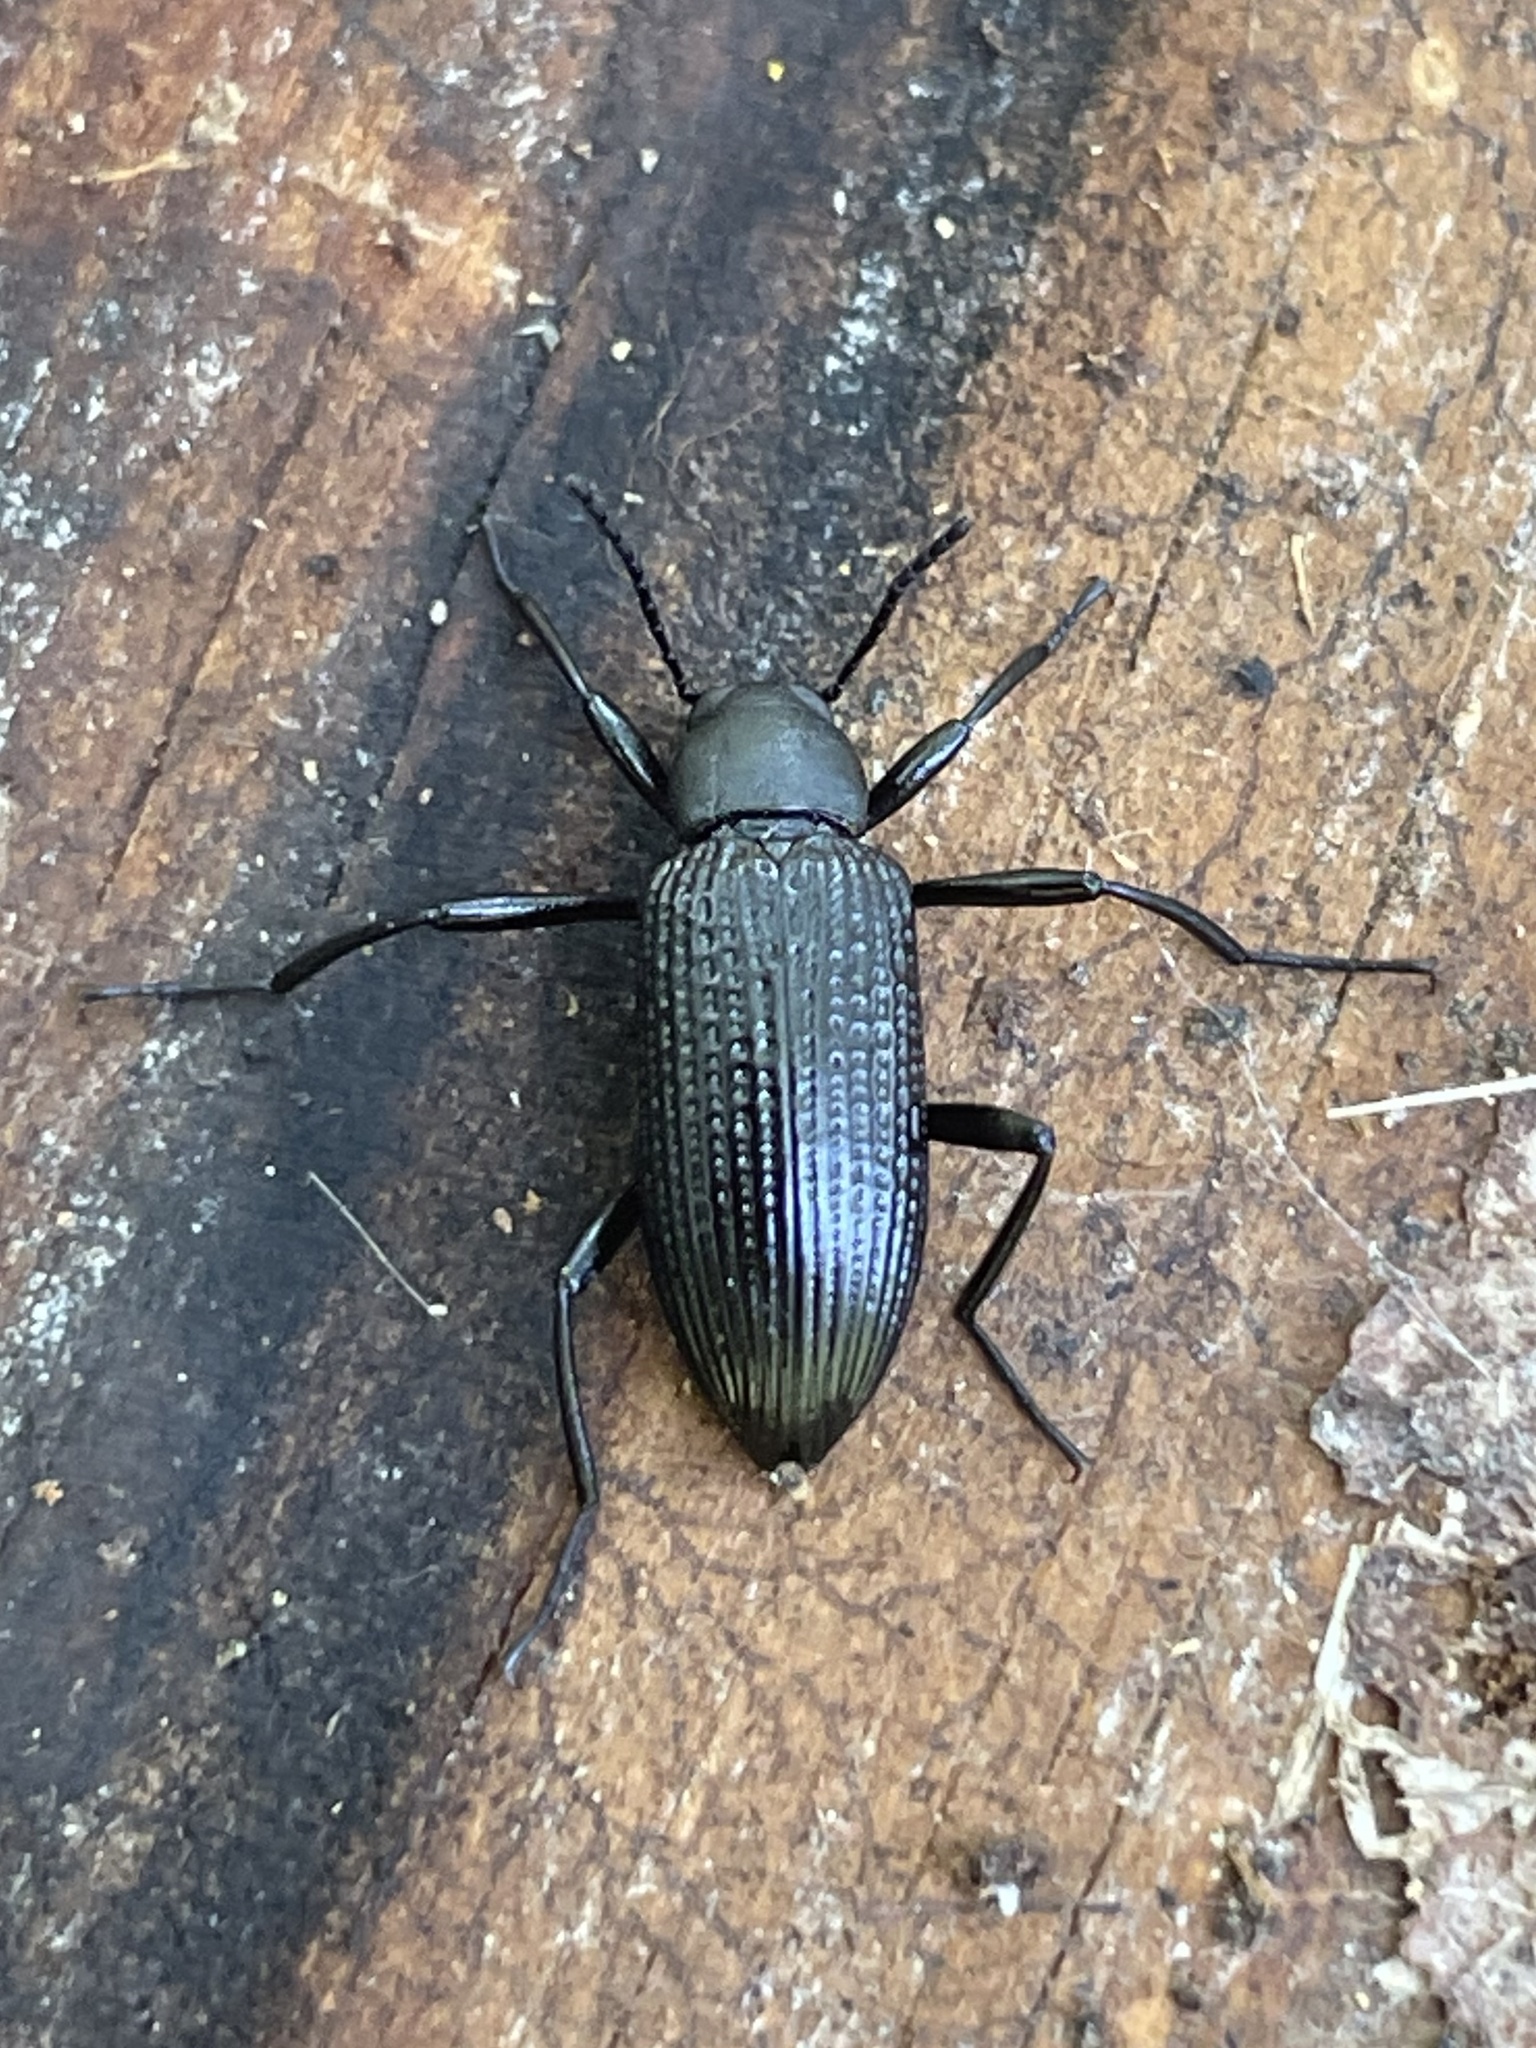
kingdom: Animalia
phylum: Arthropoda
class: Insecta
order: Coleoptera
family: Tenebrionidae
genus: Strongylium
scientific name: Strongylium hemistriatum
